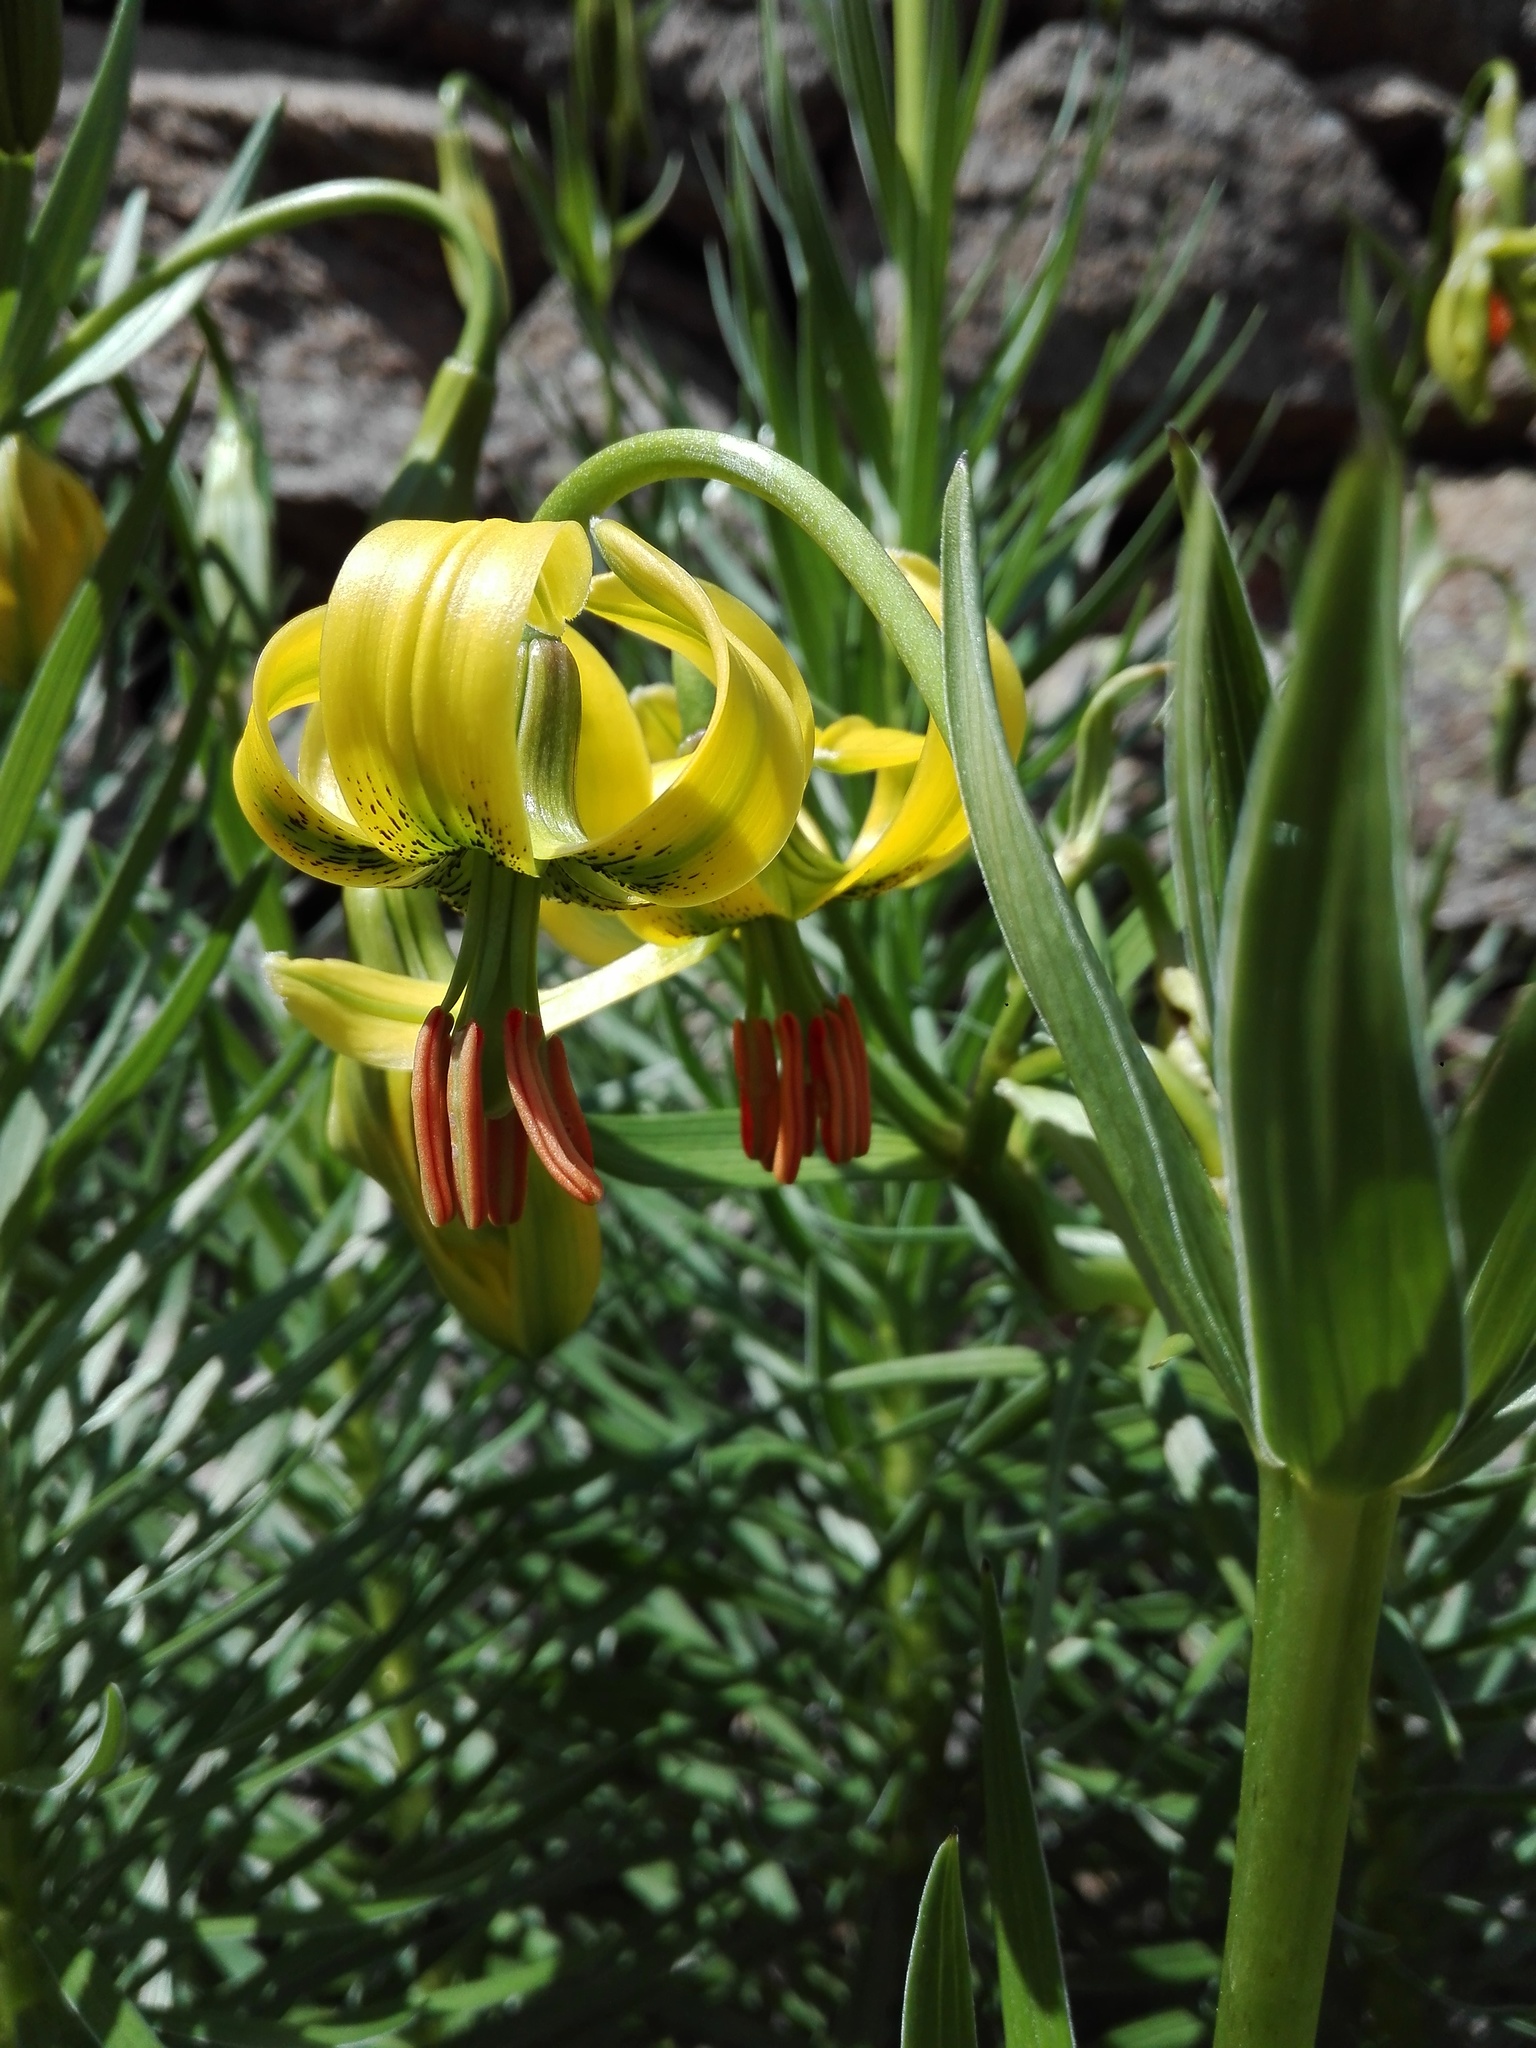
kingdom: Plantae
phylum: Tracheophyta
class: Liliopsida
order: Liliales
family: Liliaceae
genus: Lilium
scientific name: Lilium pyrenaicum
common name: Pyrenean lily
